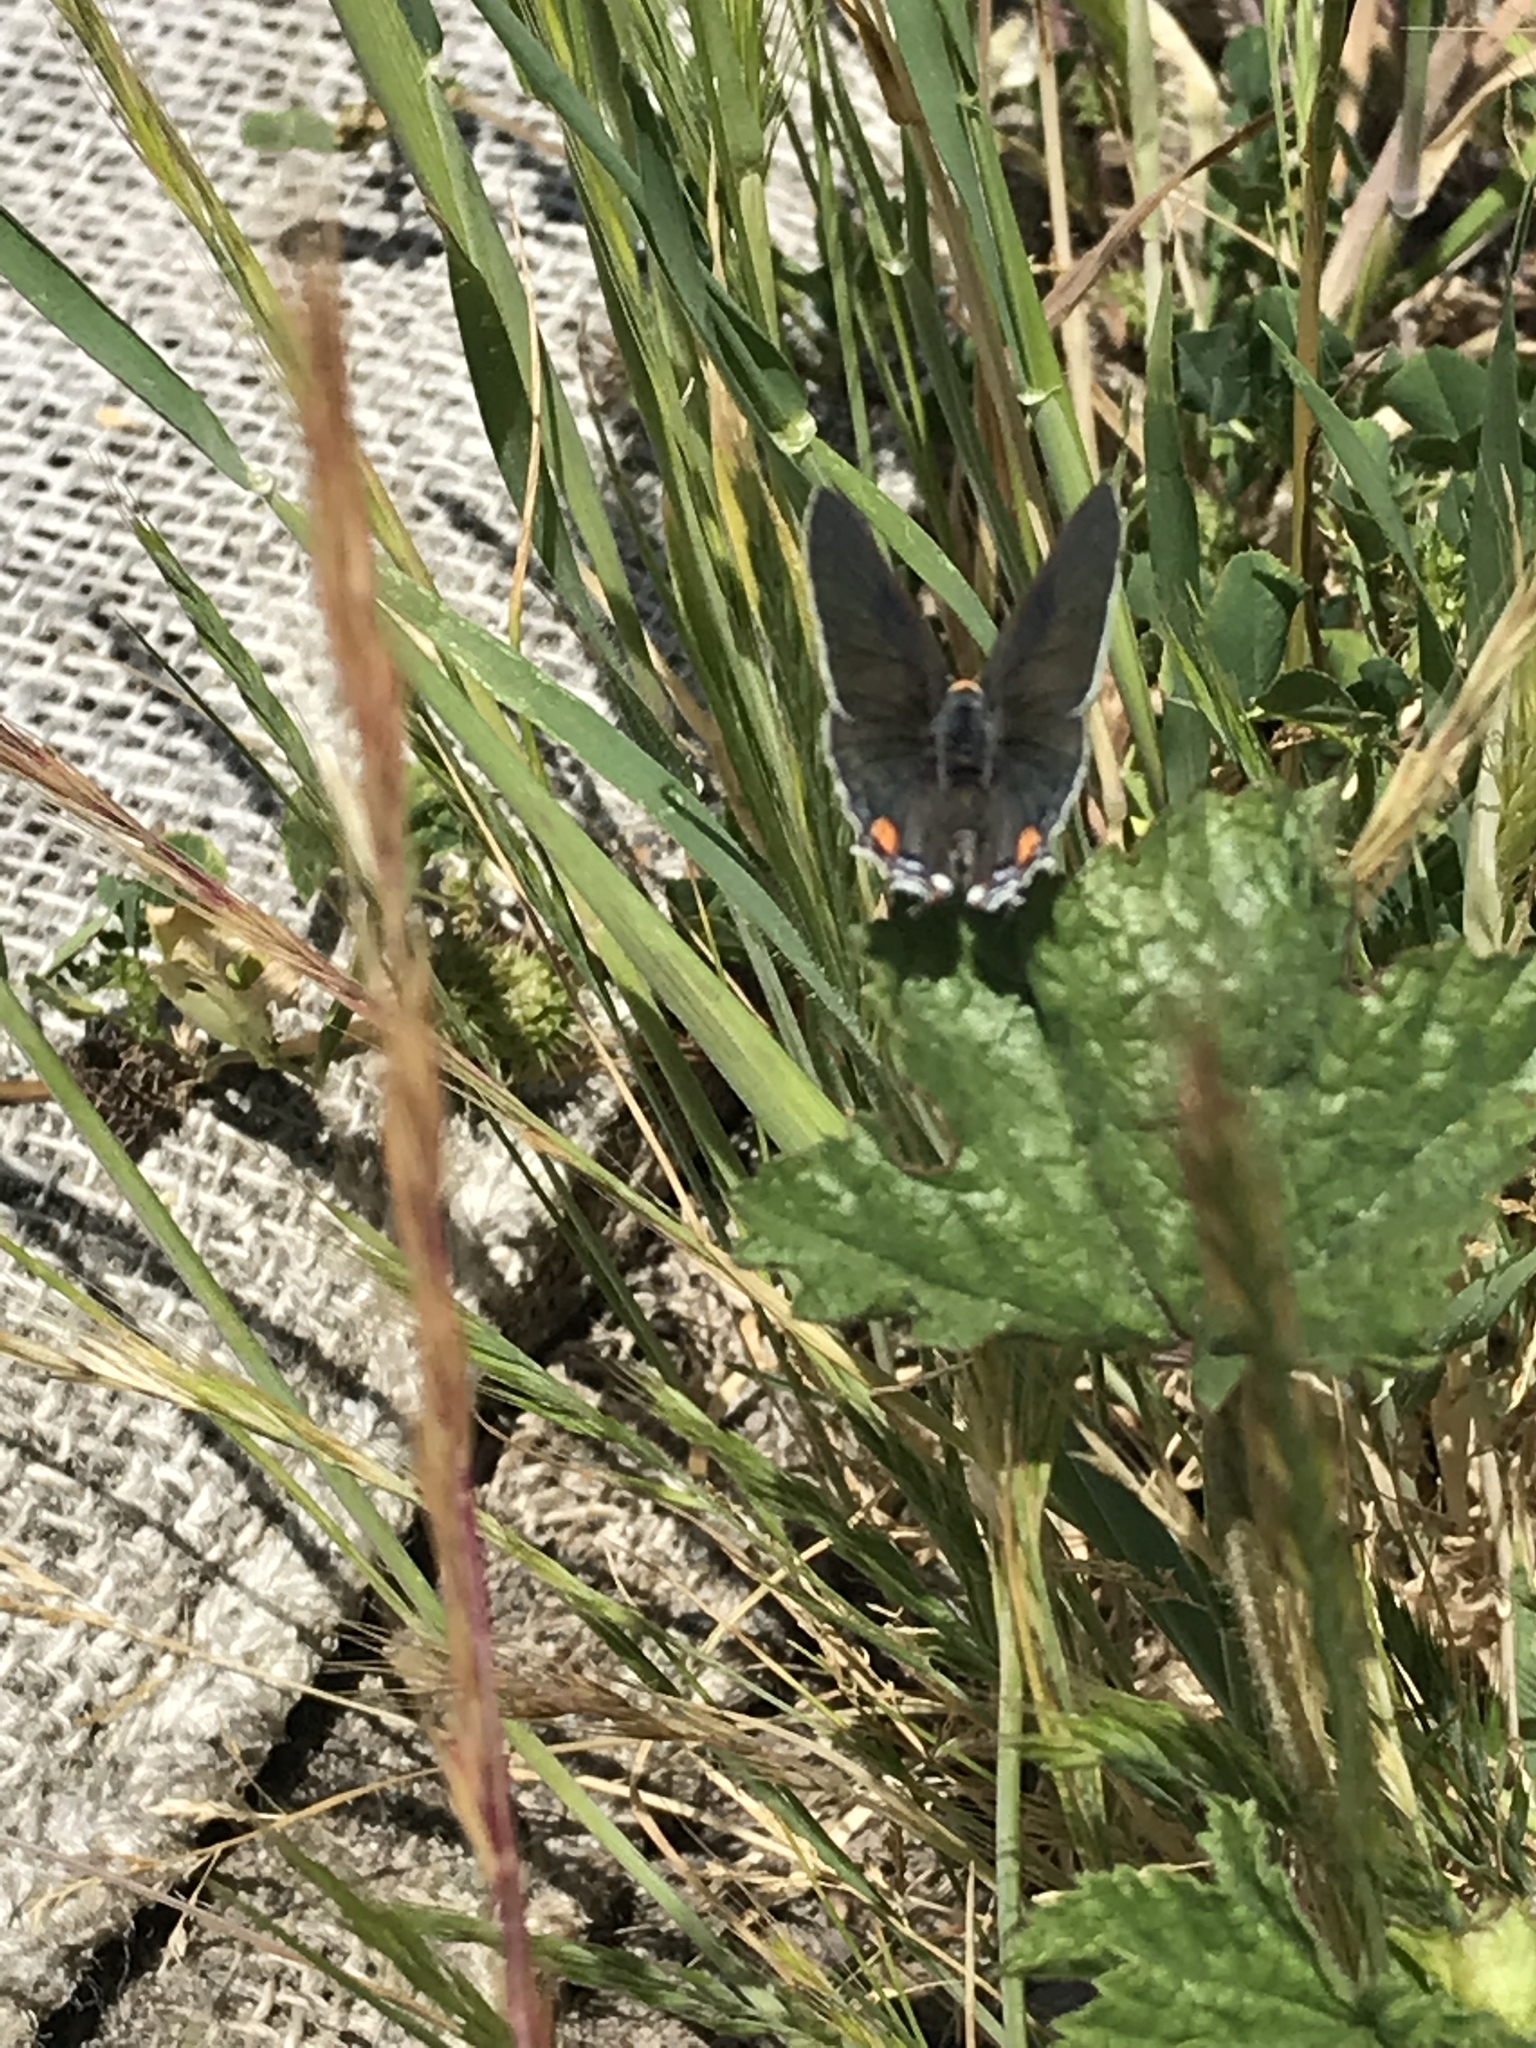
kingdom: Animalia
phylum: Arthropoda
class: Insecta
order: Lepidoptera
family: Lycaenidae
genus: Strymon
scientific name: Strymon melinus
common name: Gray hairstreak
